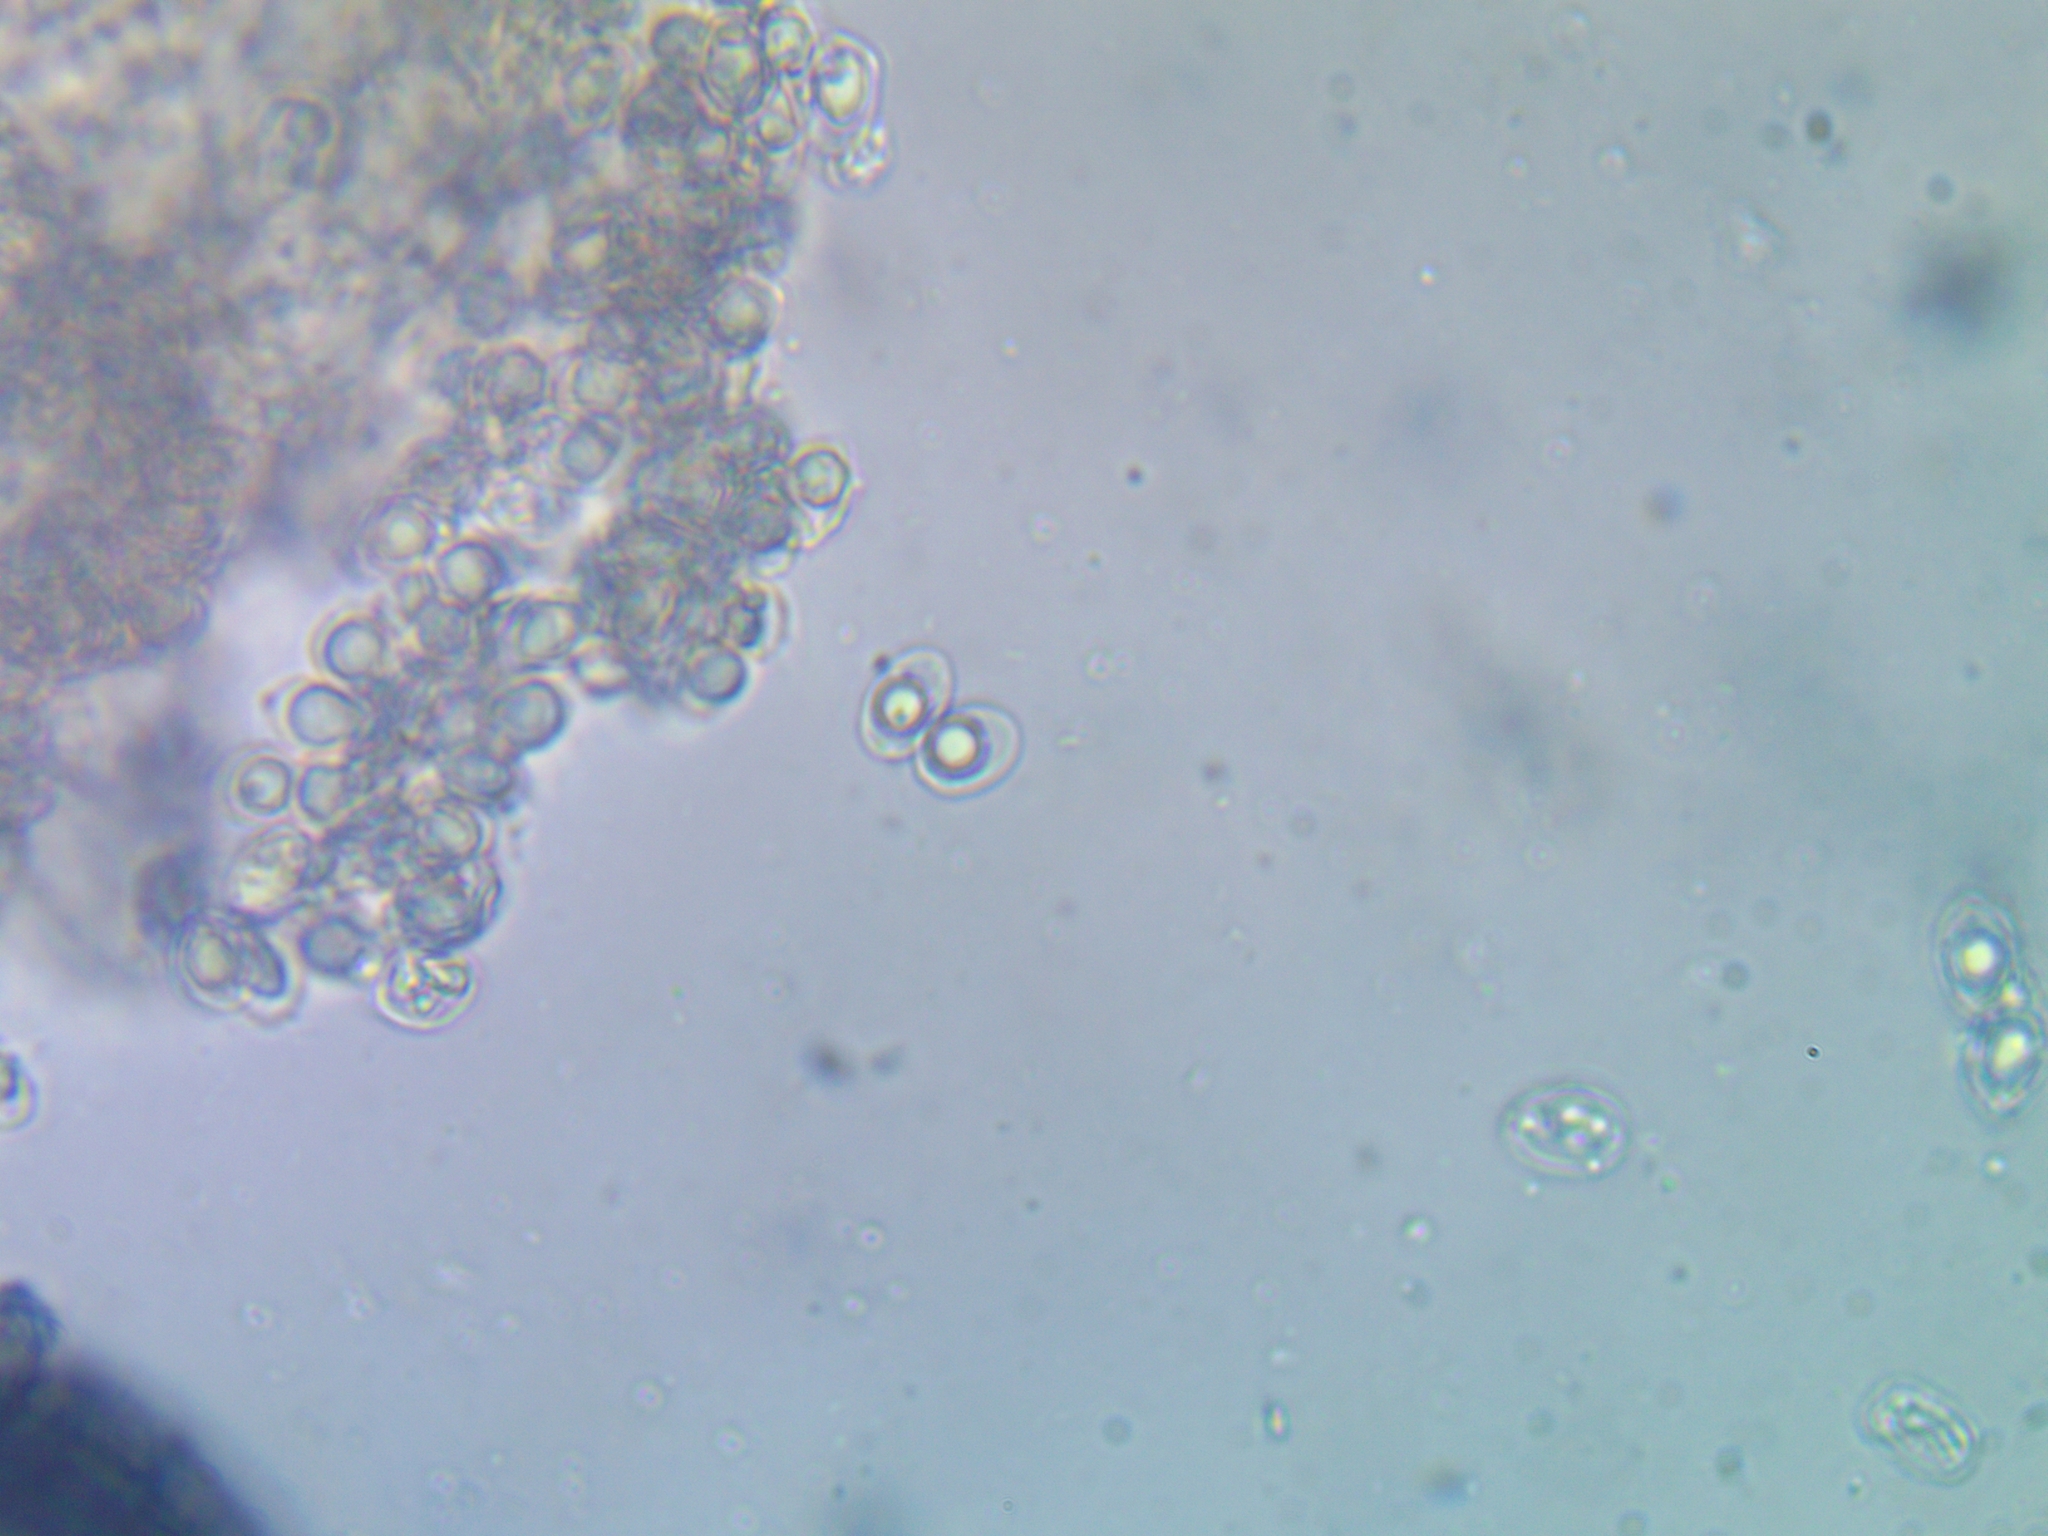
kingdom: Fungi
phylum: Basidiomycota
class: Agaricomycetes
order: Agaricales
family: Radulomycetaceae
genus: Radulomyces
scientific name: Radulomyces molaris
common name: Oak toothcrust
